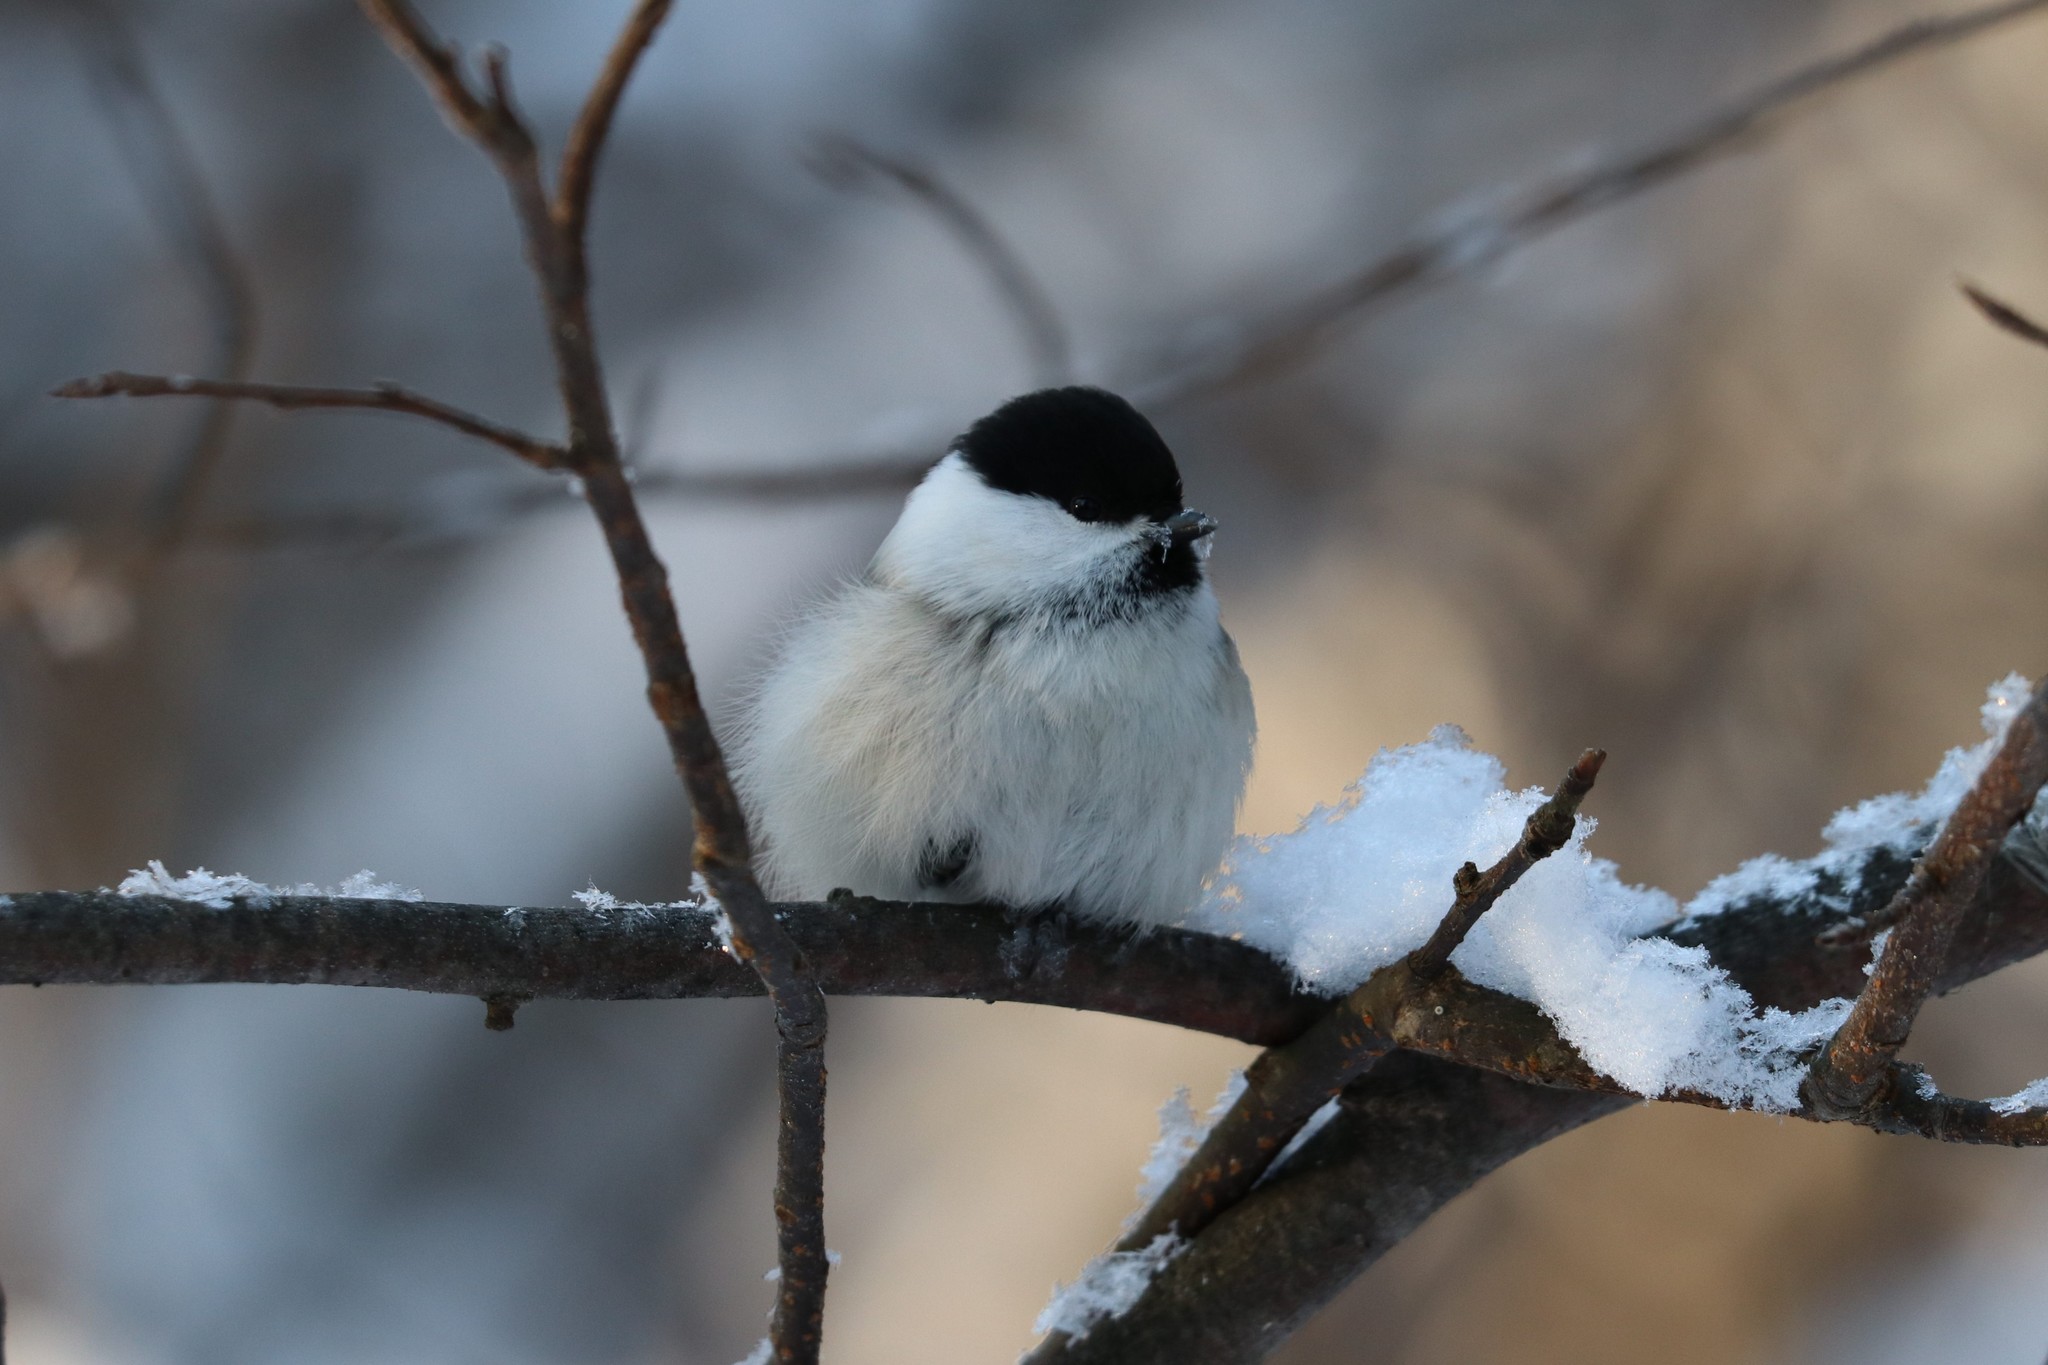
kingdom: Animalia
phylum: Chordata
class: Aves
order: Passeriformes
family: Paridae
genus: Poecile
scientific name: Poecile montanus
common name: Willow tit
